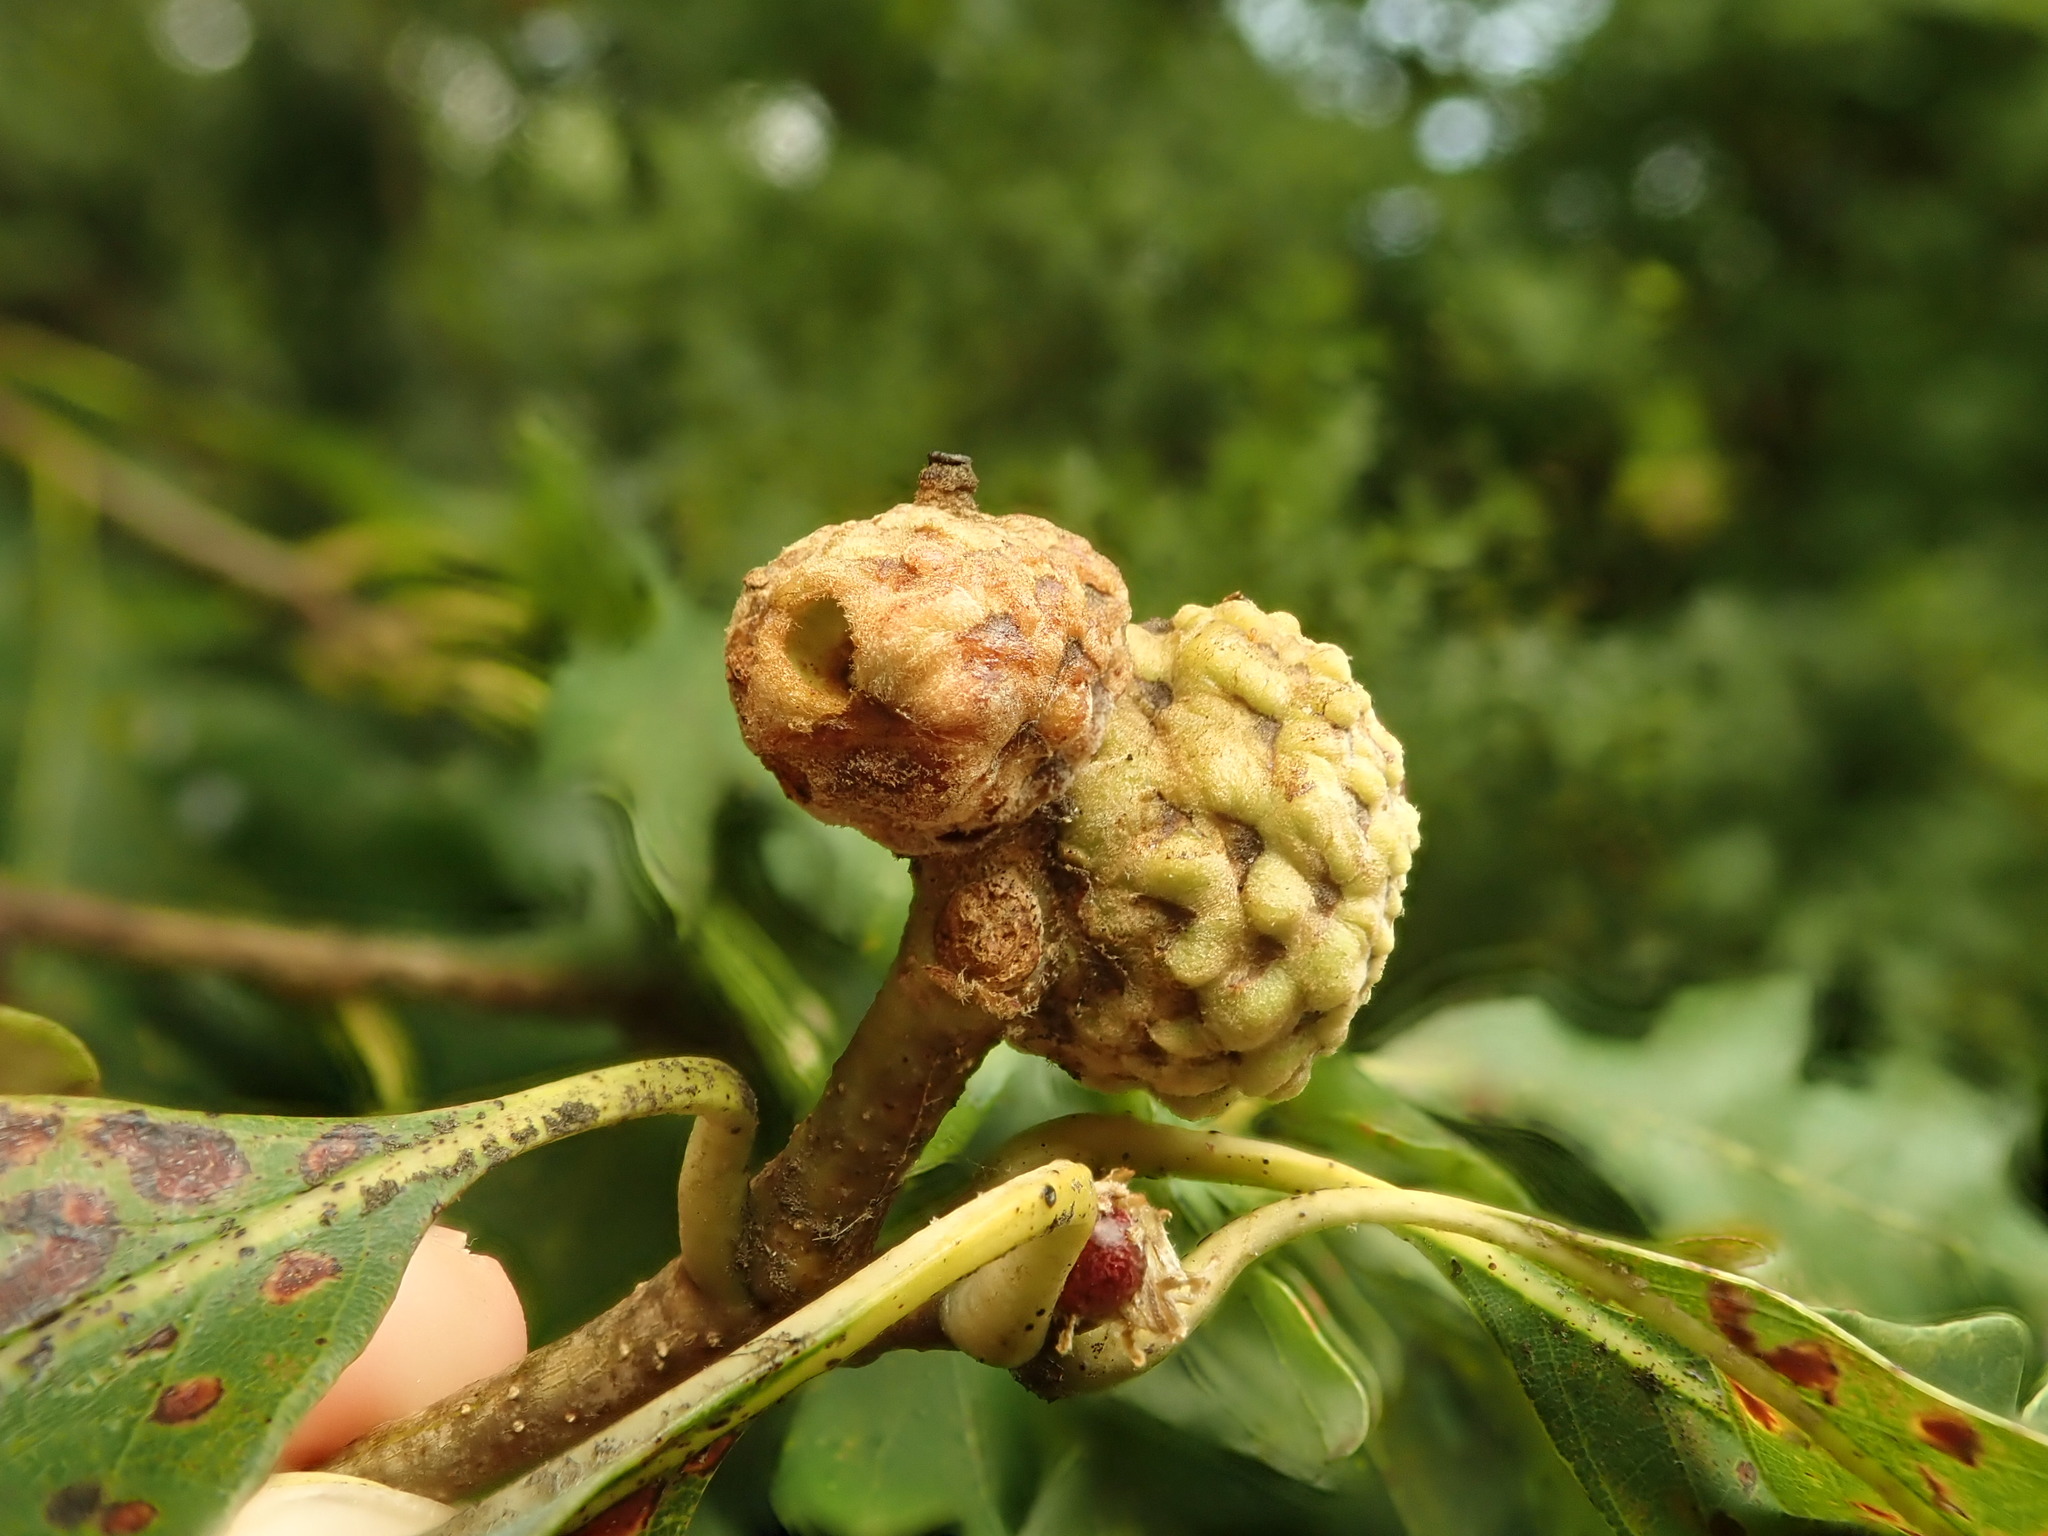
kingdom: Animalia
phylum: Arthropoda
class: Insecta
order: Hymenoptera
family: Cynipidae
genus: Callirhytis
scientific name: Callirhytis glandium
